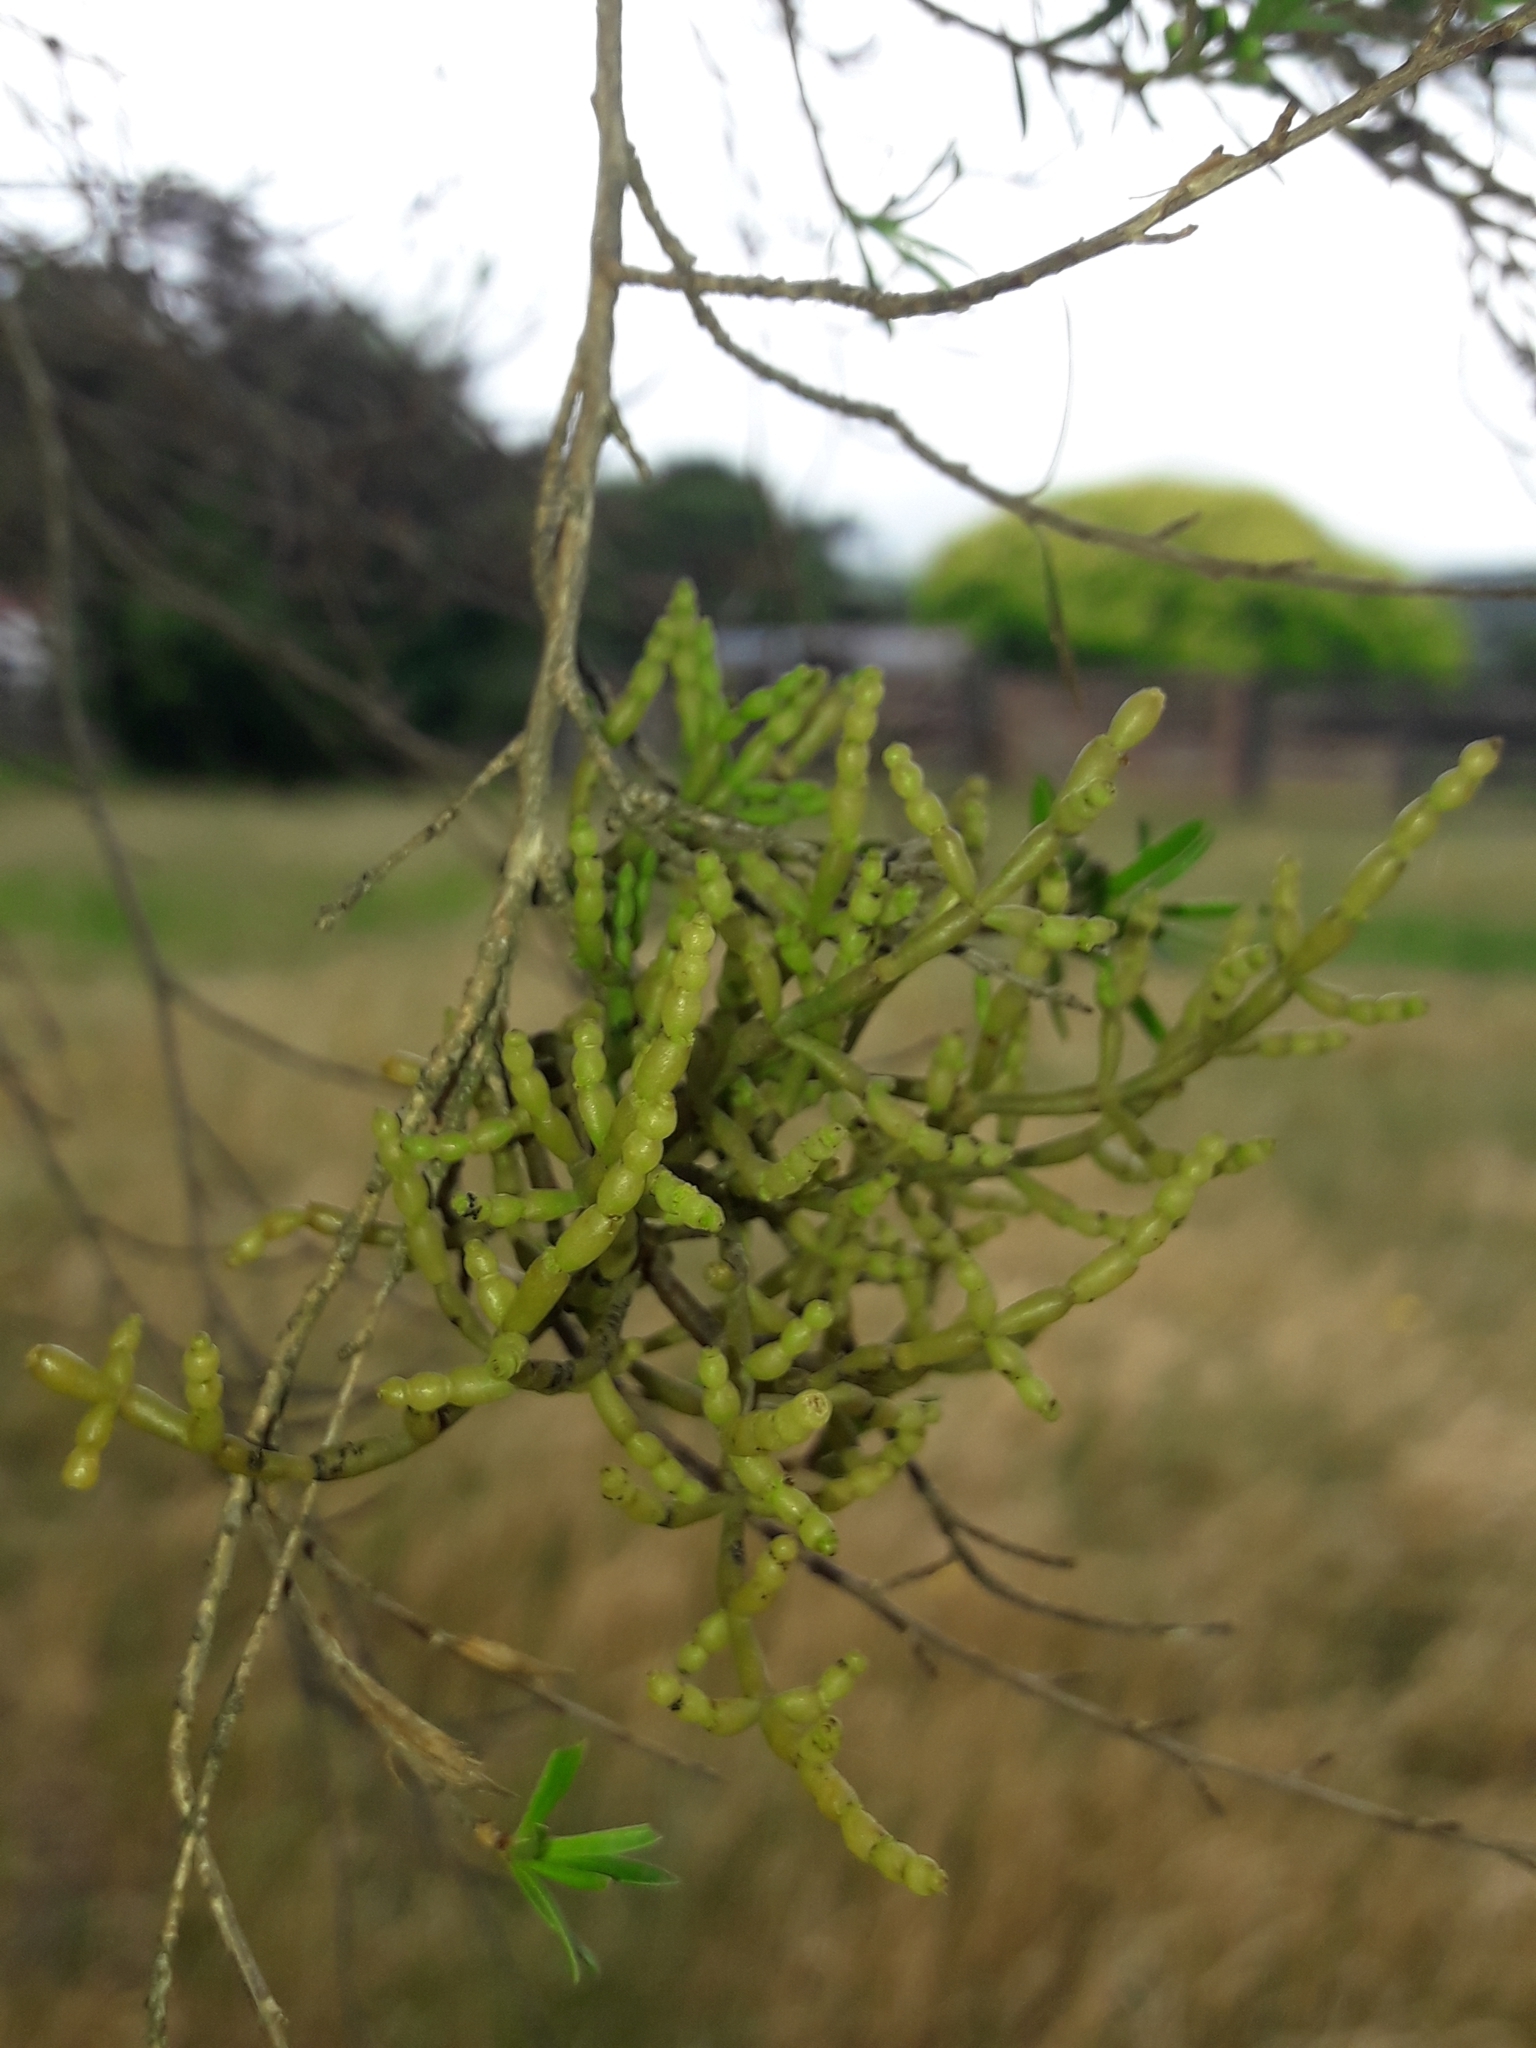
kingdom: Plantae
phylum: Tracheophyta
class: Magnoliopsida
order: Santalales
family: Viscaceae
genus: Korthalsella
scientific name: Korthalsella salicornioides
